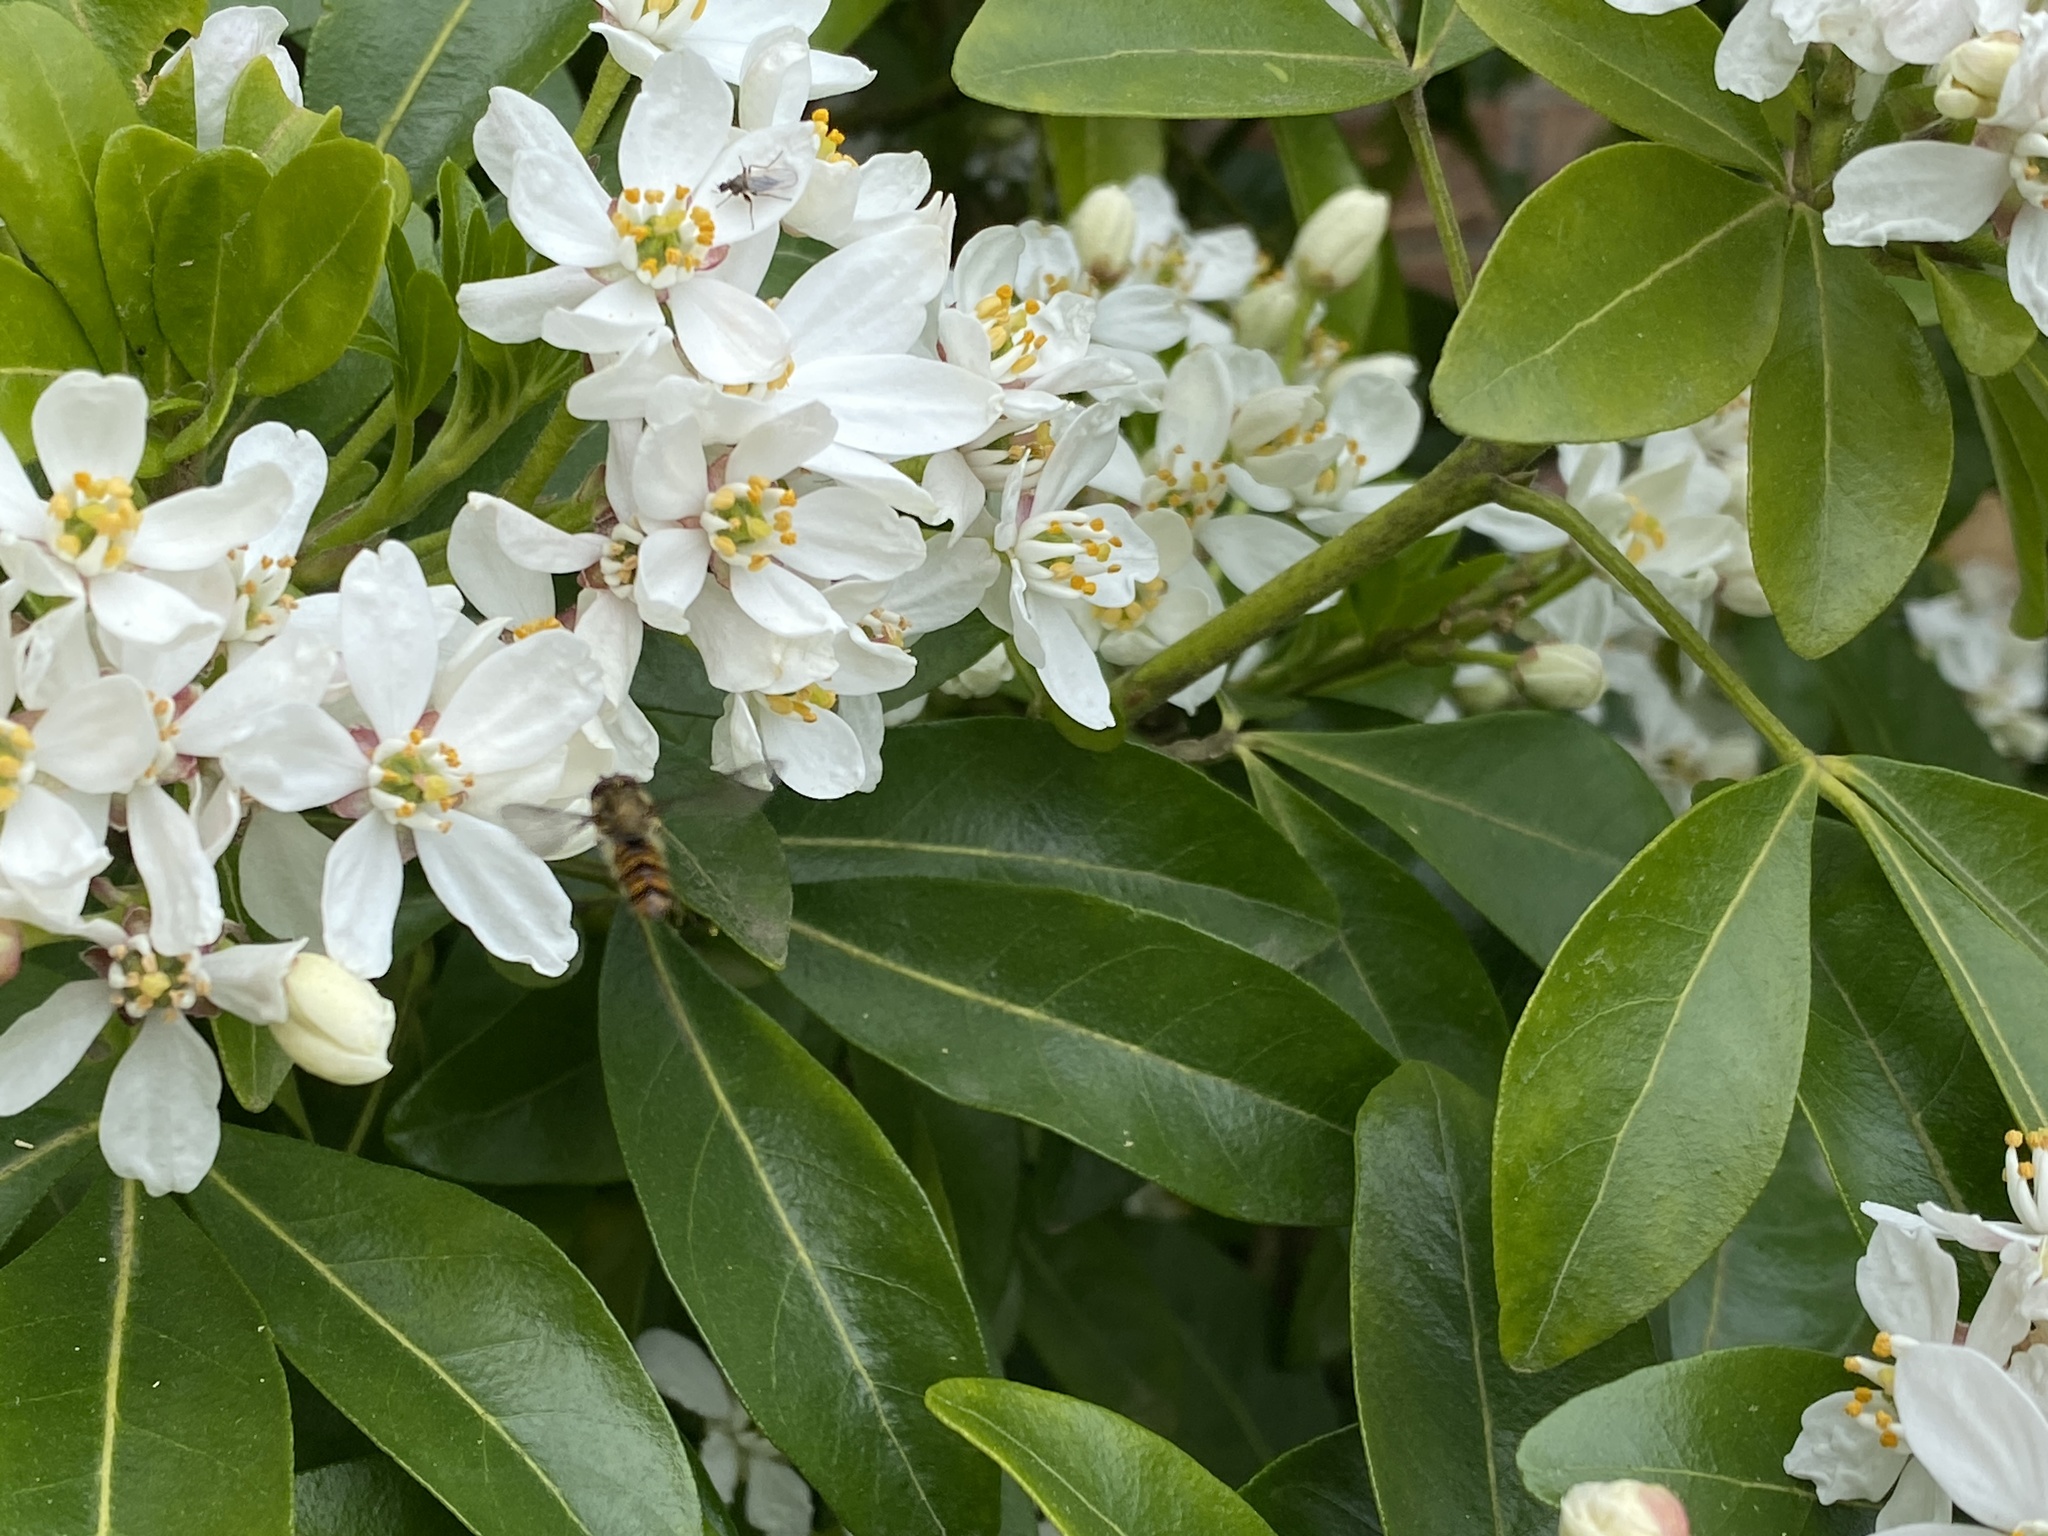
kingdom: Animalia
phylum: Arthropoda
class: Insecta
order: Diptera
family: Syrphidae
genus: Episyrphus
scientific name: Episyrphus balteatus
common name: Marmalade hoverfly
